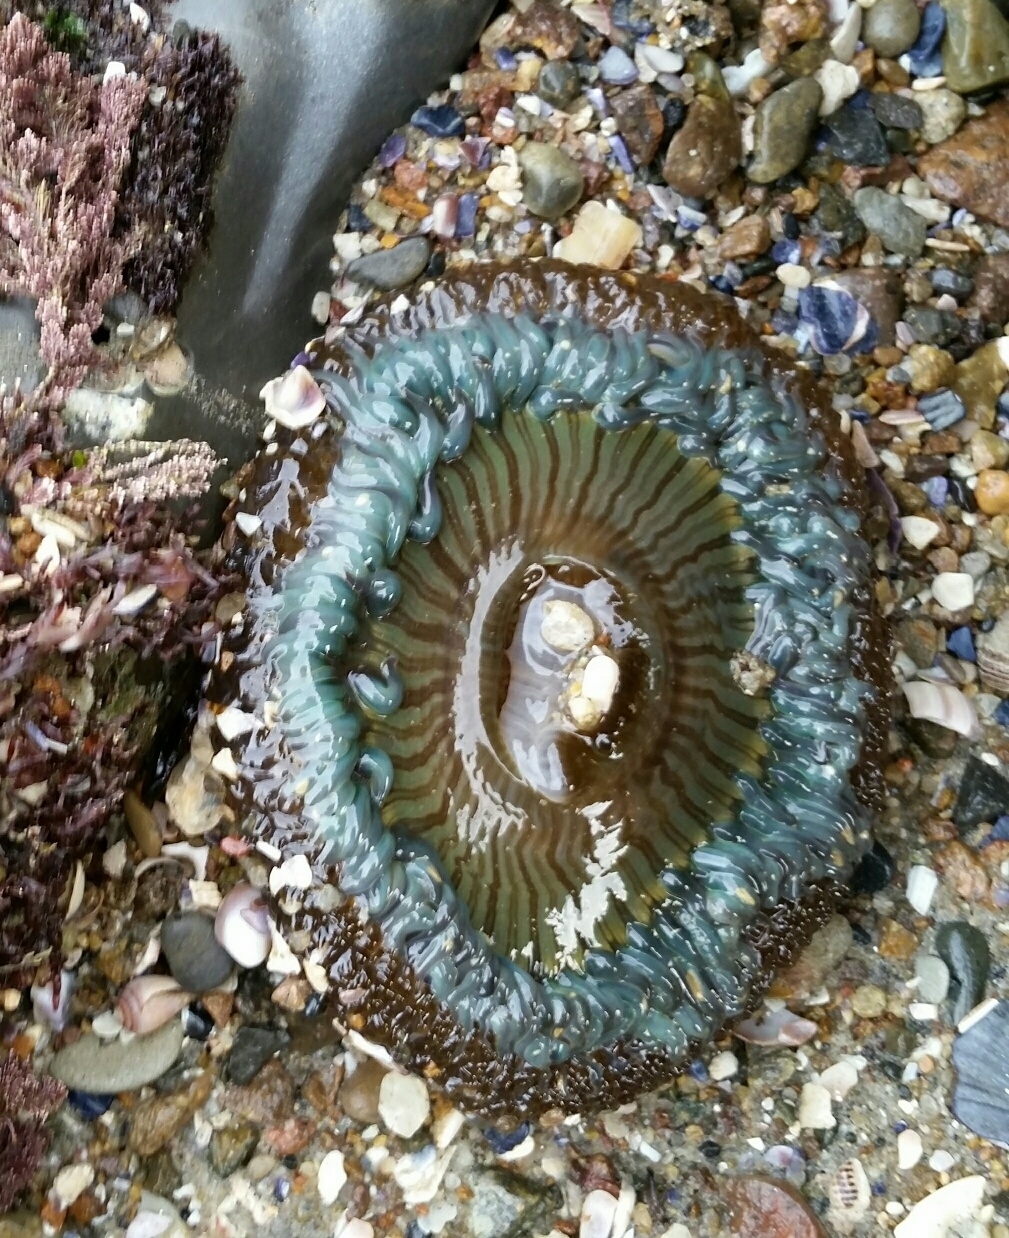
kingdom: Animalia
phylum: Cnidaria
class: Anthozoa
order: Actiniaria
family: Actiniidae
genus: Anthopleura
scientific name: Anthopleura sola
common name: Sun anemone
